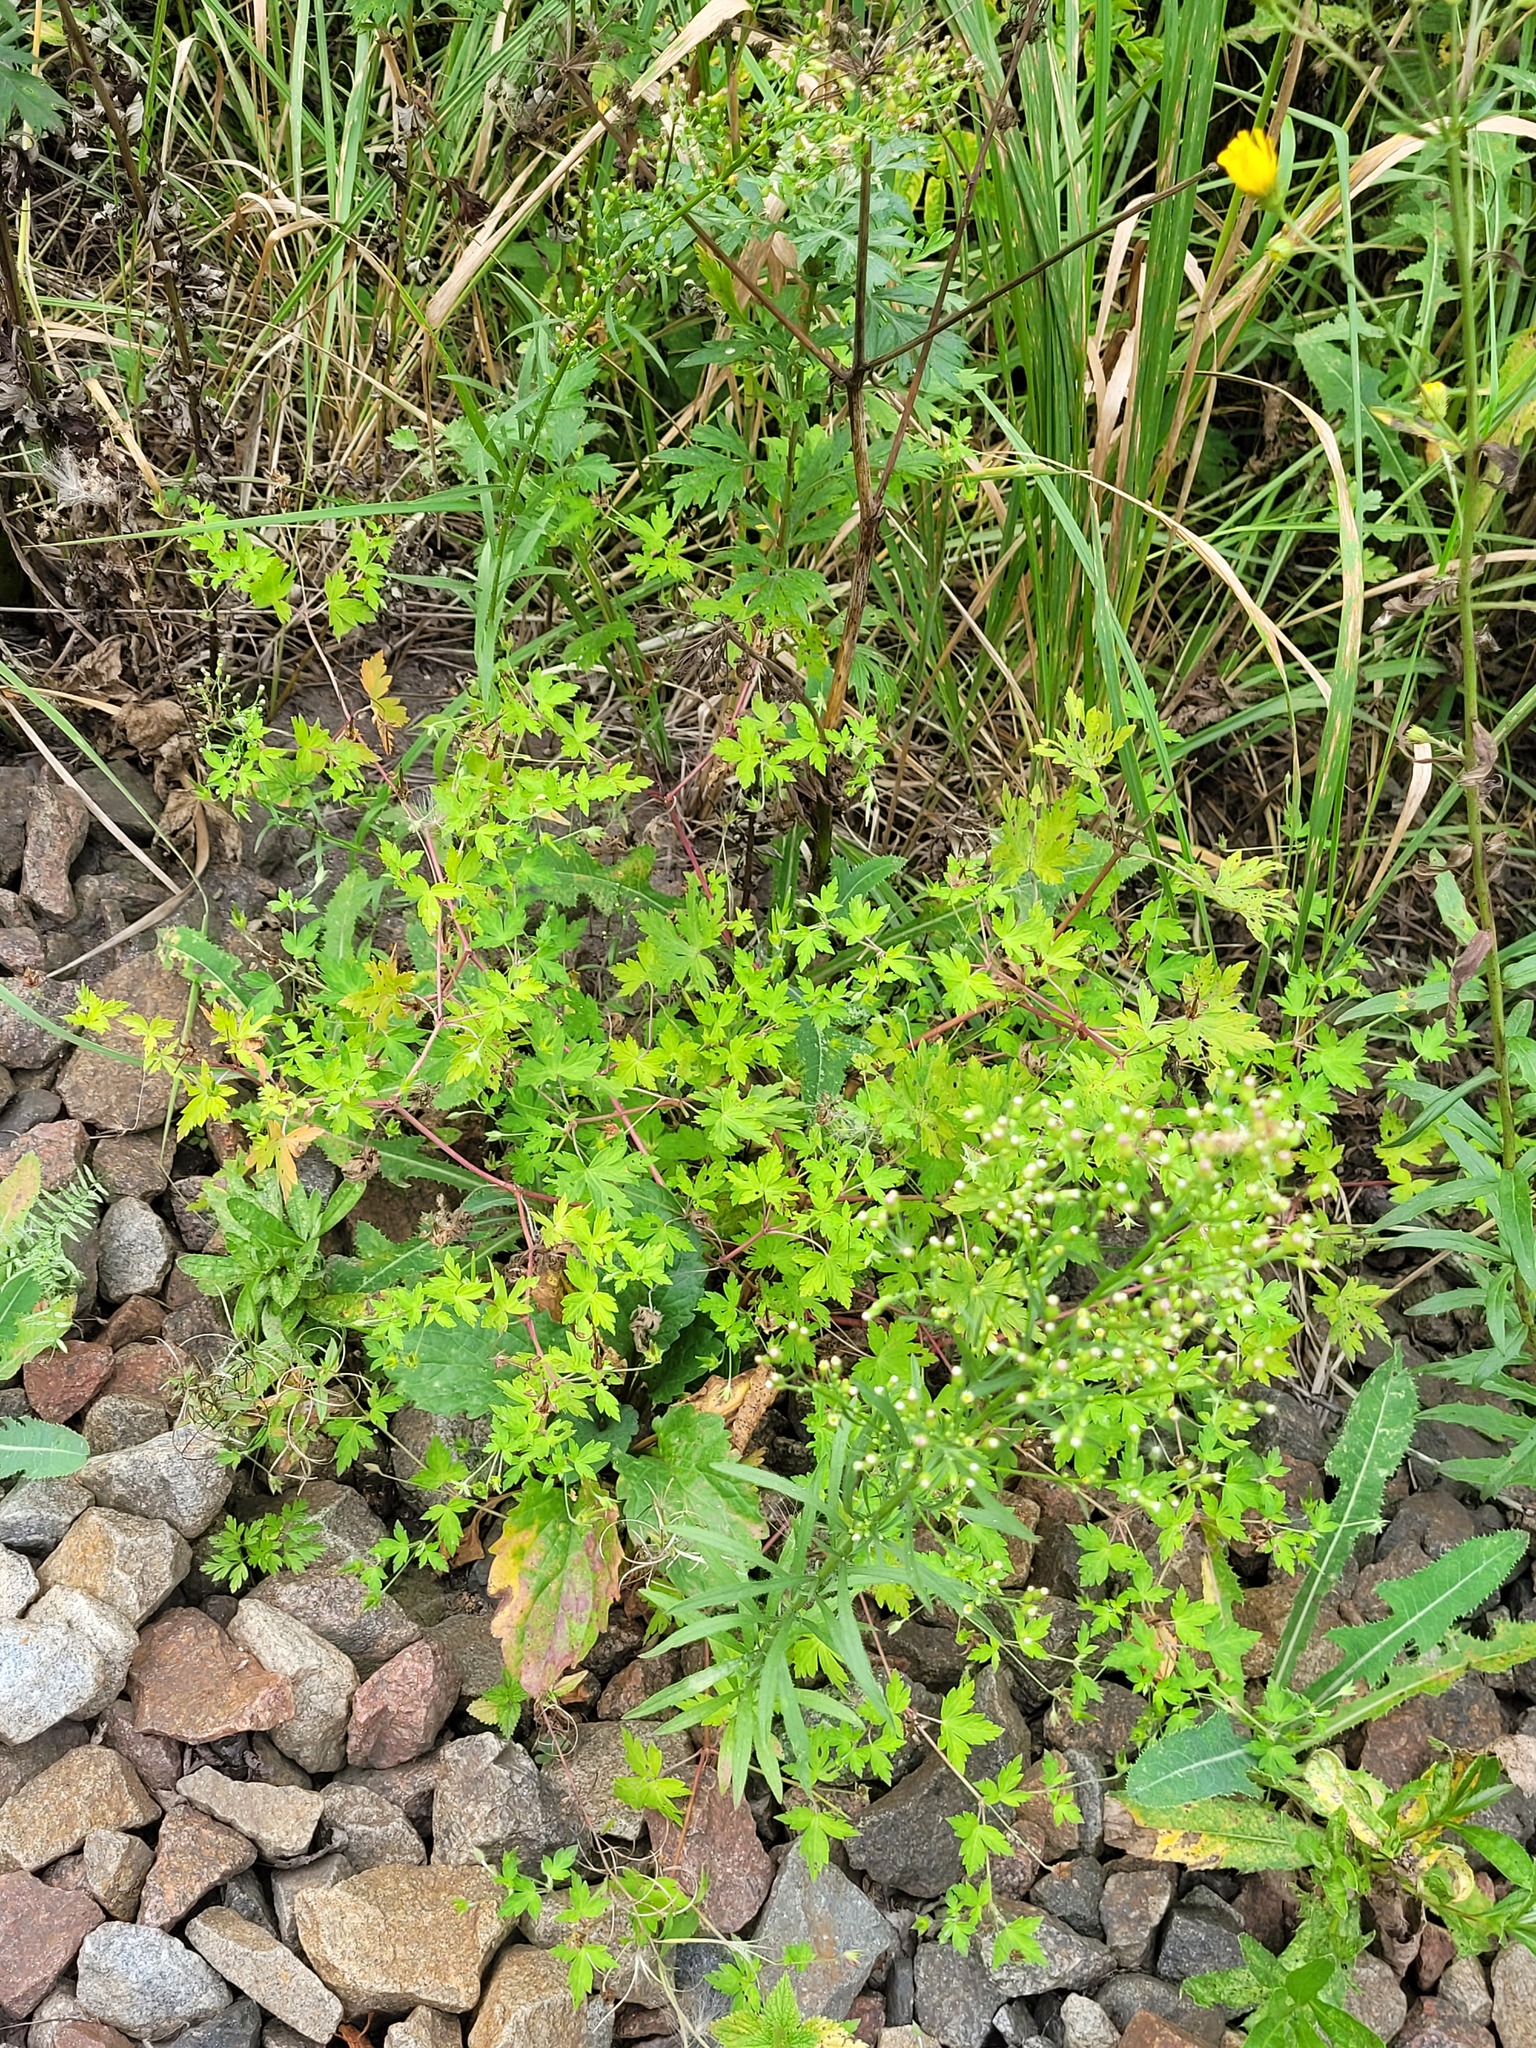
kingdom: Plantae
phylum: Tracheophyta
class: Magnoliopsida
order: Geraniales
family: Geraniaceae
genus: Geranium
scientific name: Geranium sibiricum
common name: Siberian crane's-bill
